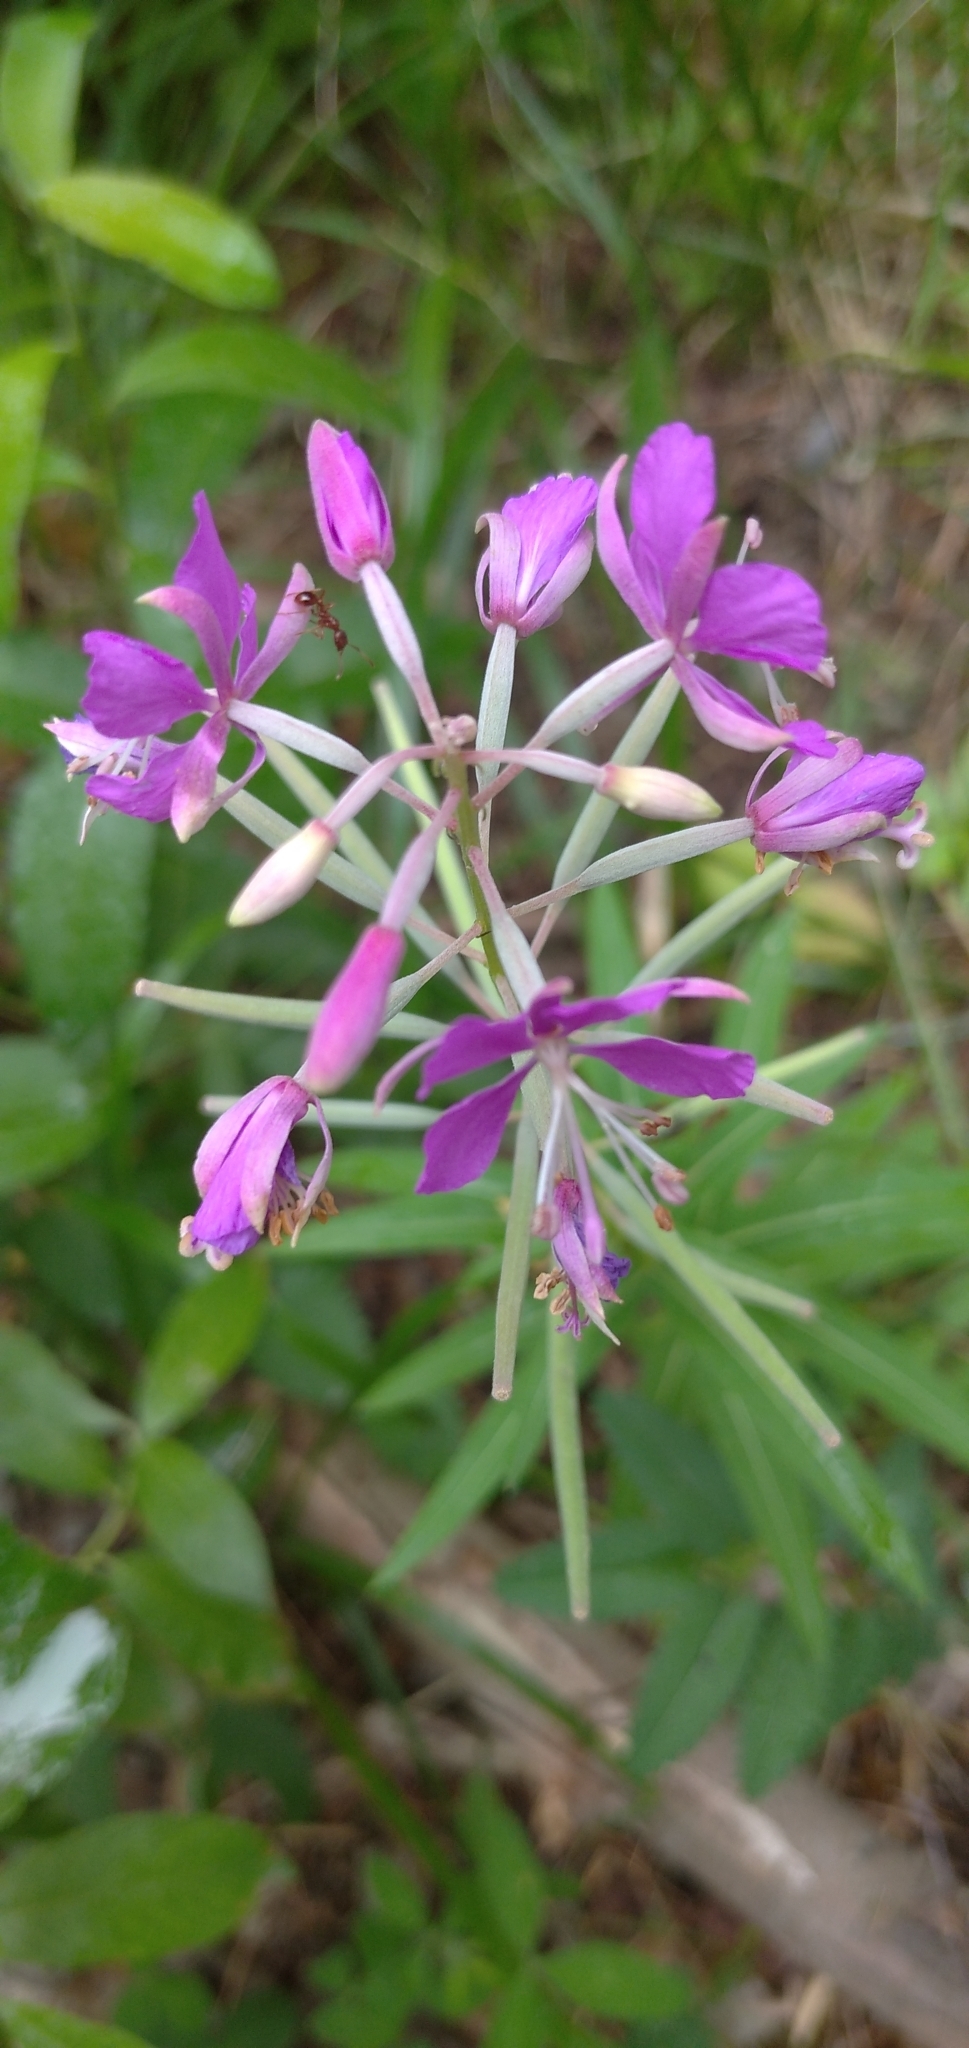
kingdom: Plantae
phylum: Tracheophyta
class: Magnoliopsida
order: Myrtales
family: Onagraceae
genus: Chamaenerion
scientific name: Chamaenerion angustifolium
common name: Fireweed
